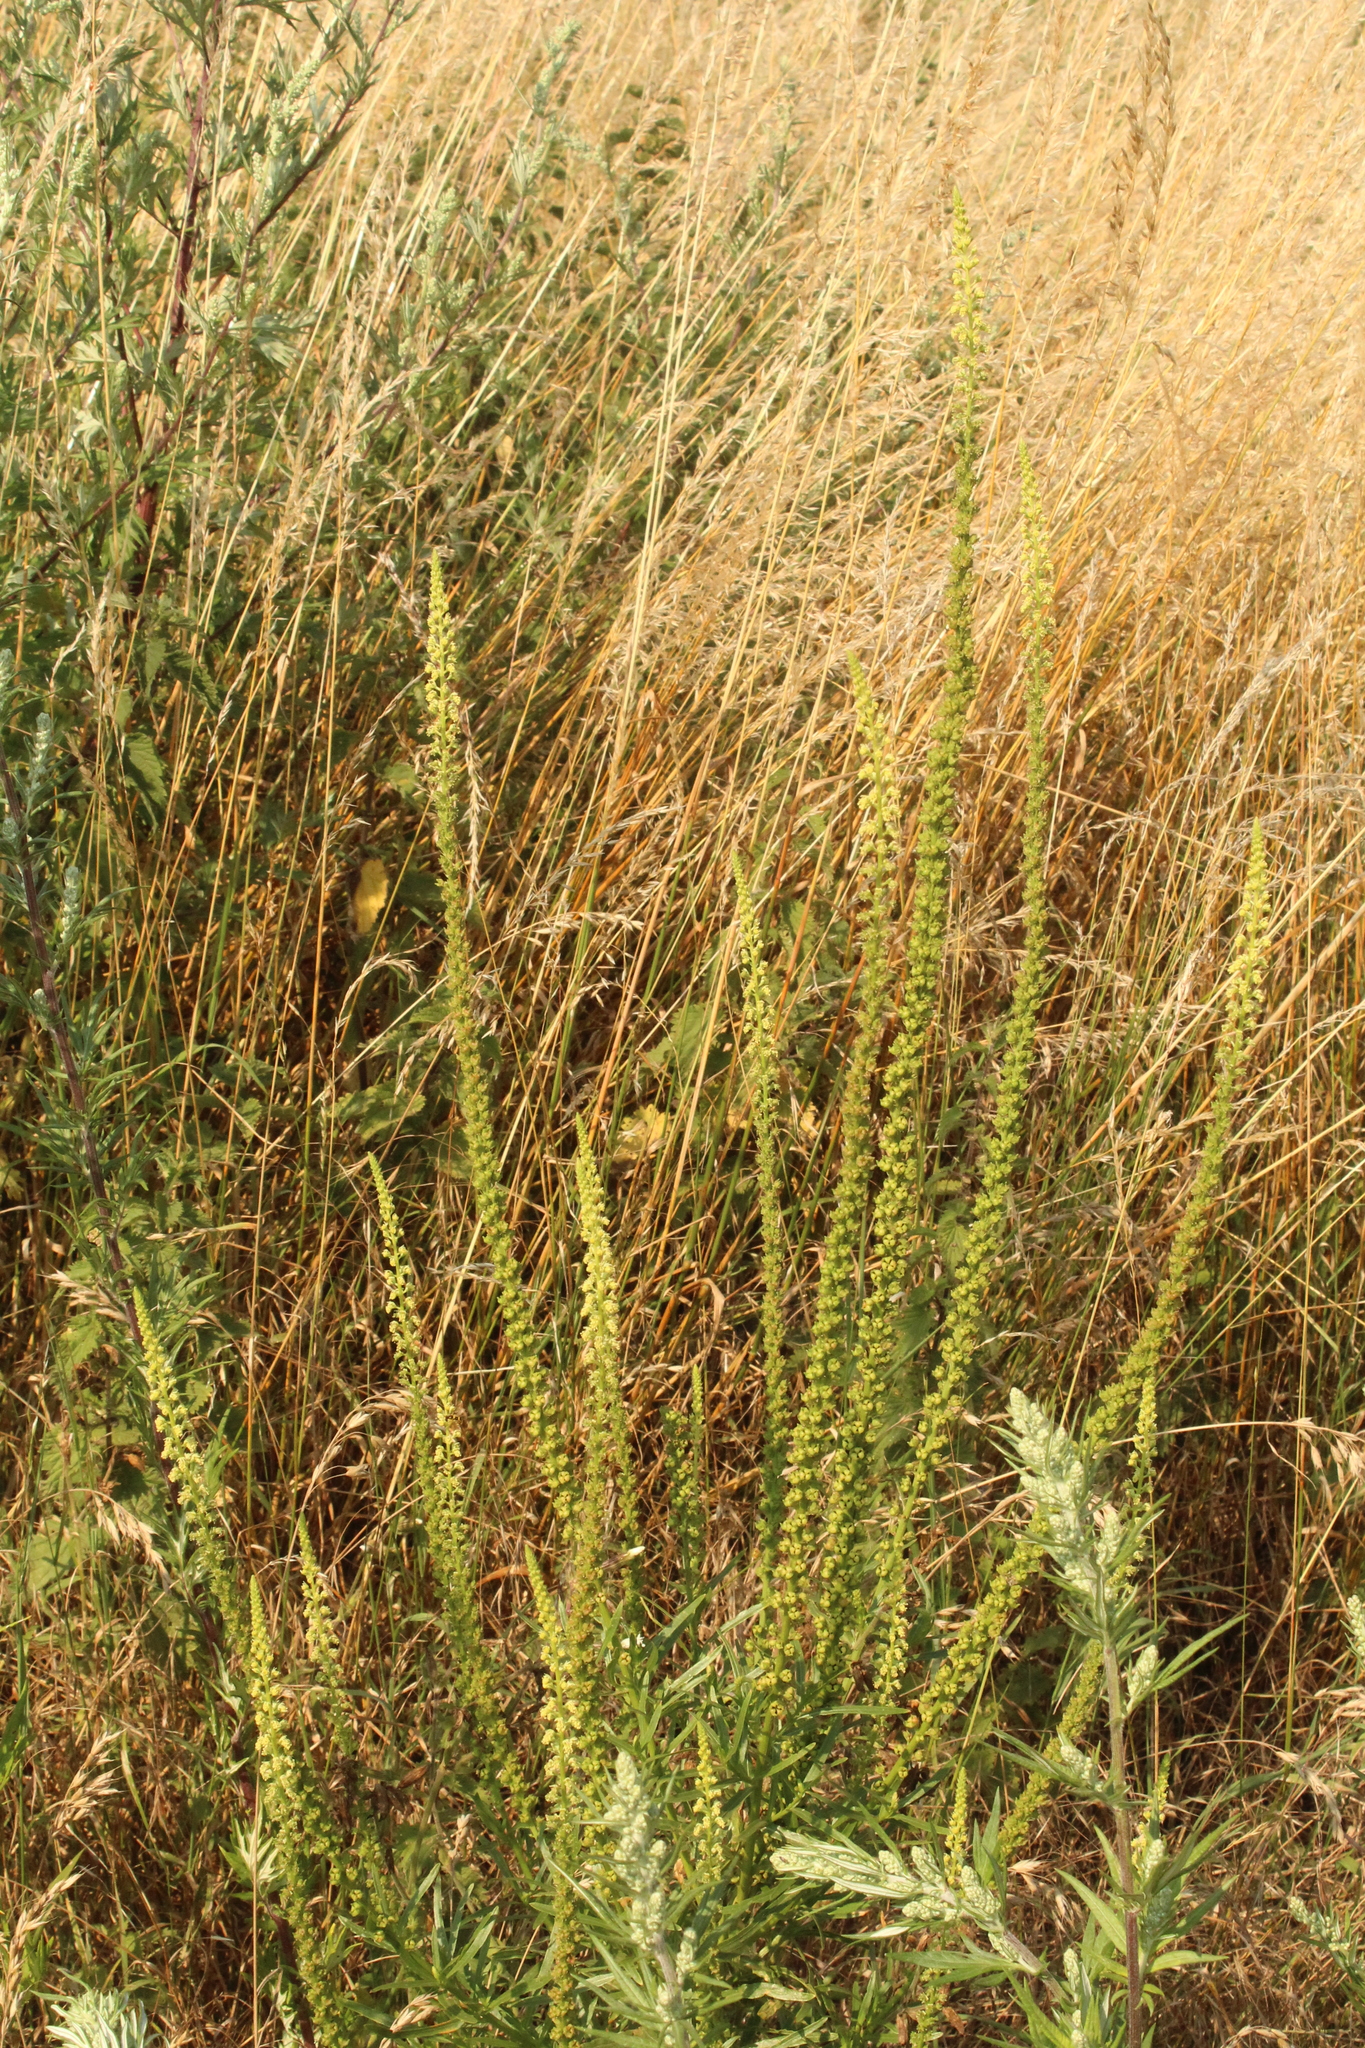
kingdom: Plantae
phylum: Tracheophyta
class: Magnoliopsida
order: Brassicales
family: Resedaceae
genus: Reseda
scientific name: Reseda luteola
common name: Weld
